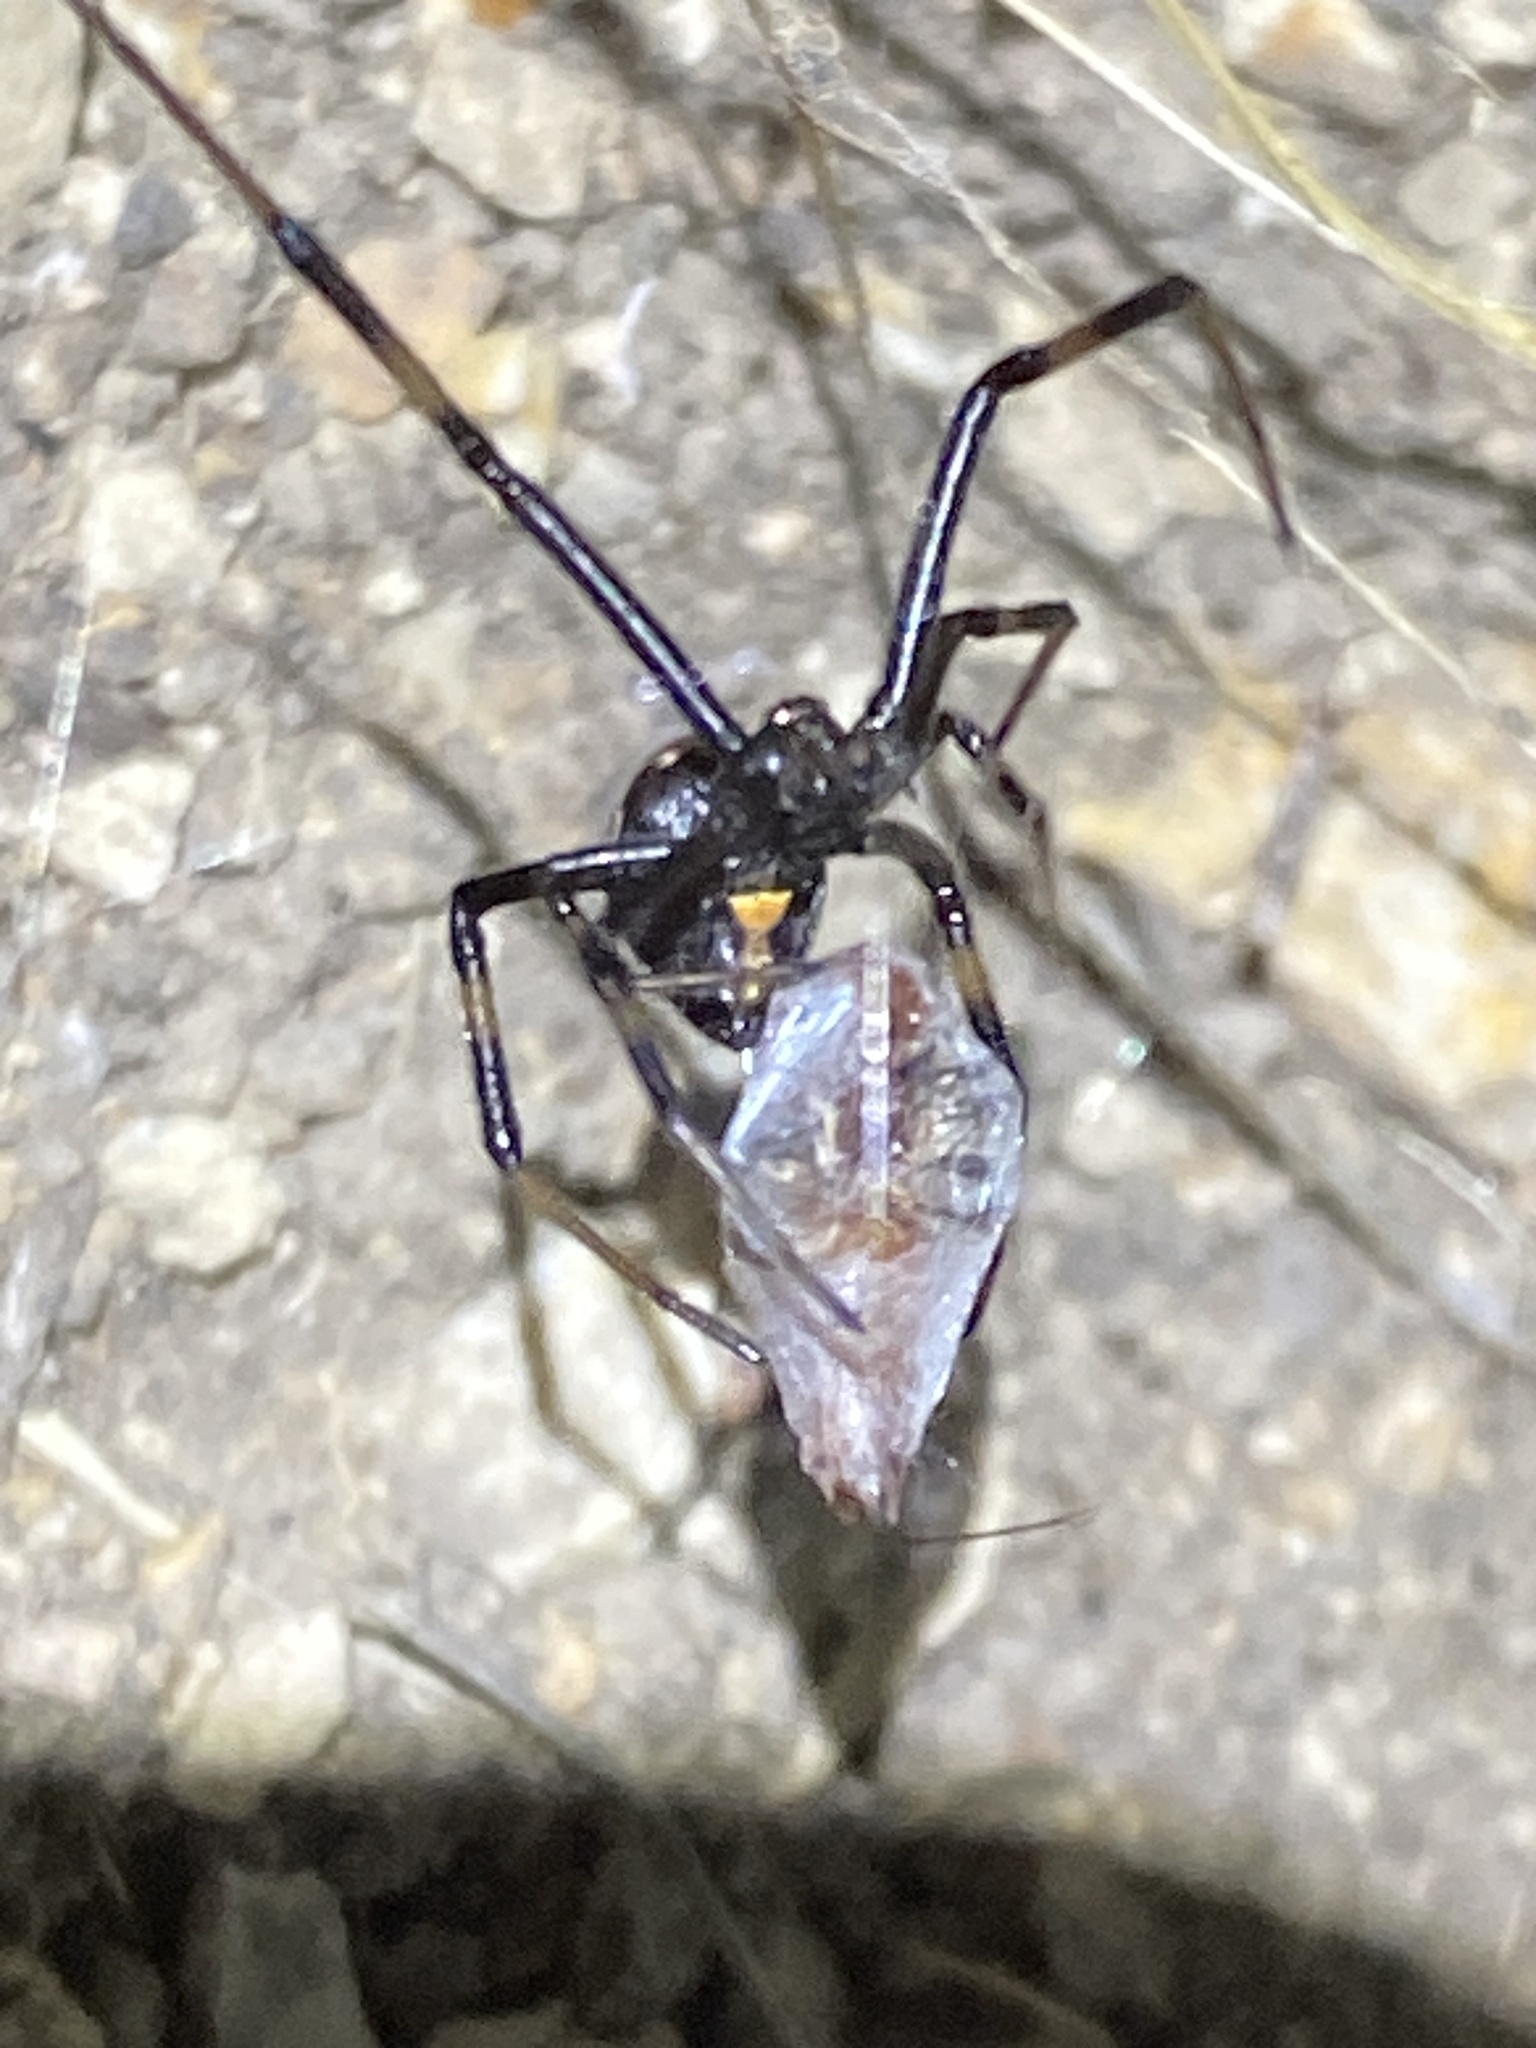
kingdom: Animalia
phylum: Arthropoda
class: Arachnida
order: Araneae
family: Theridiidae
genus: Latrodectus
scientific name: Latrodectus hesperus
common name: Western black widow
